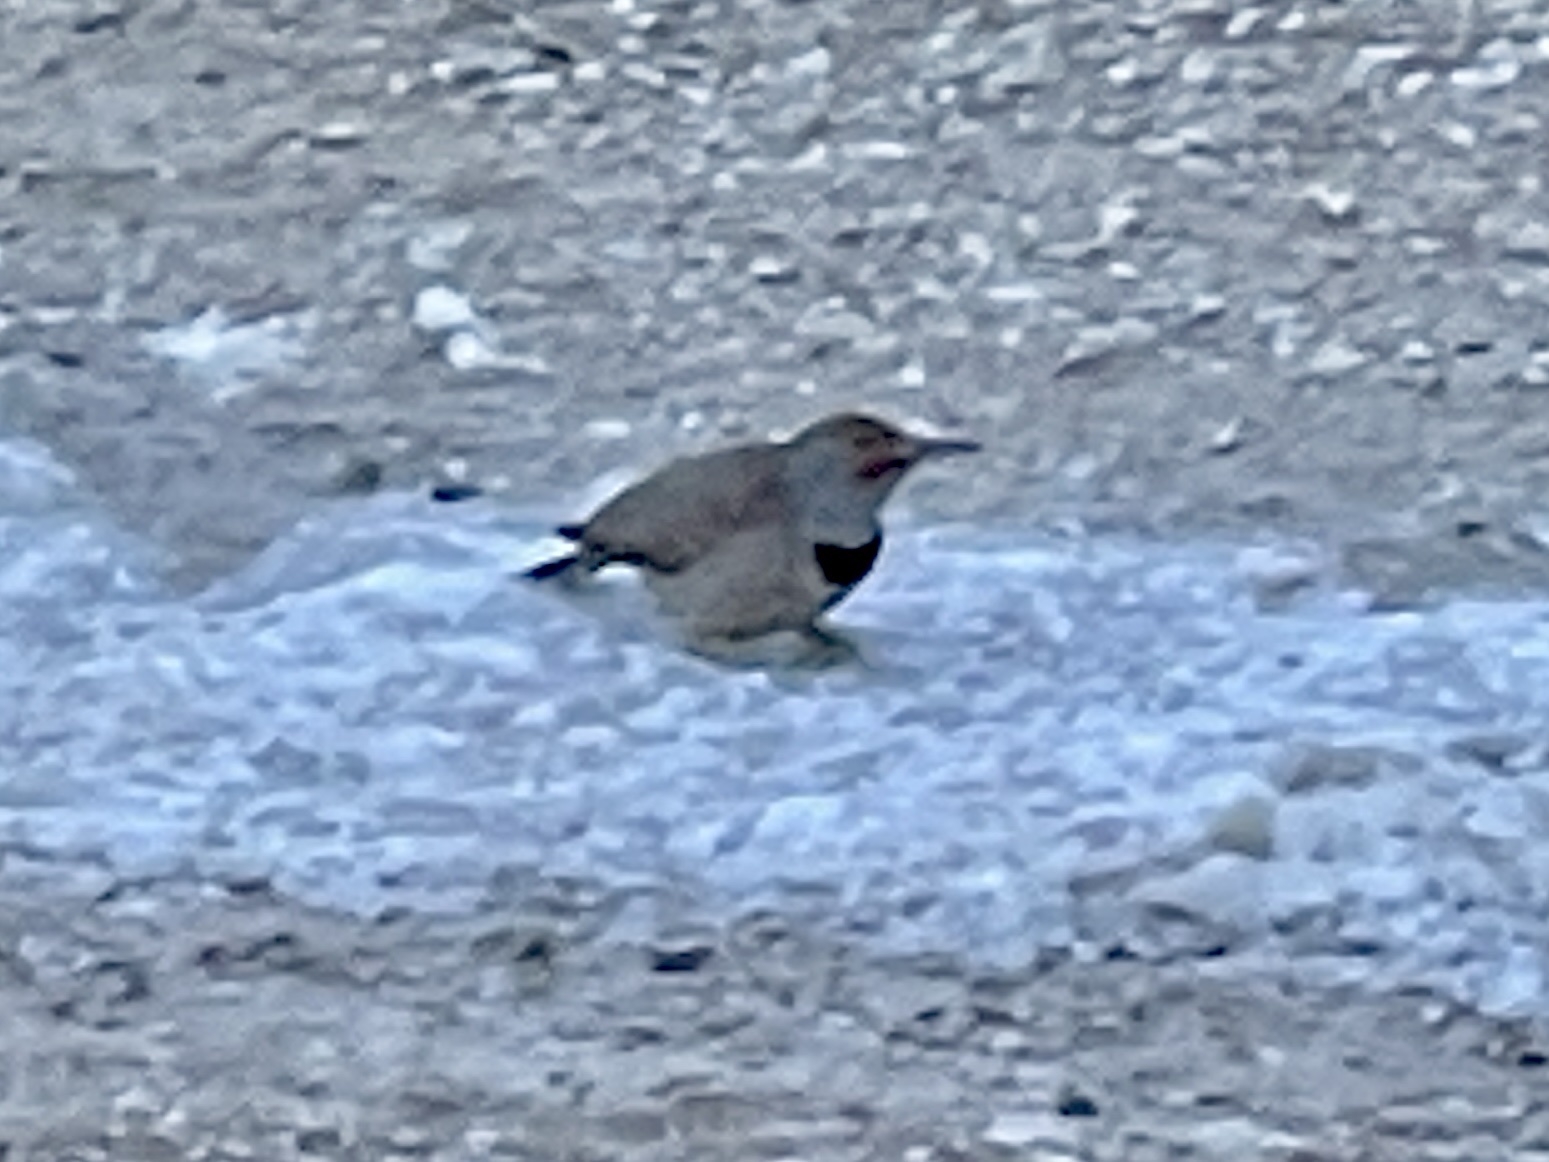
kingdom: Animalia
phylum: Chordata
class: Aves
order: Piciformes
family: Picidae
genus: Colaptes
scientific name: Colaptes auratus
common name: Northern flicker
